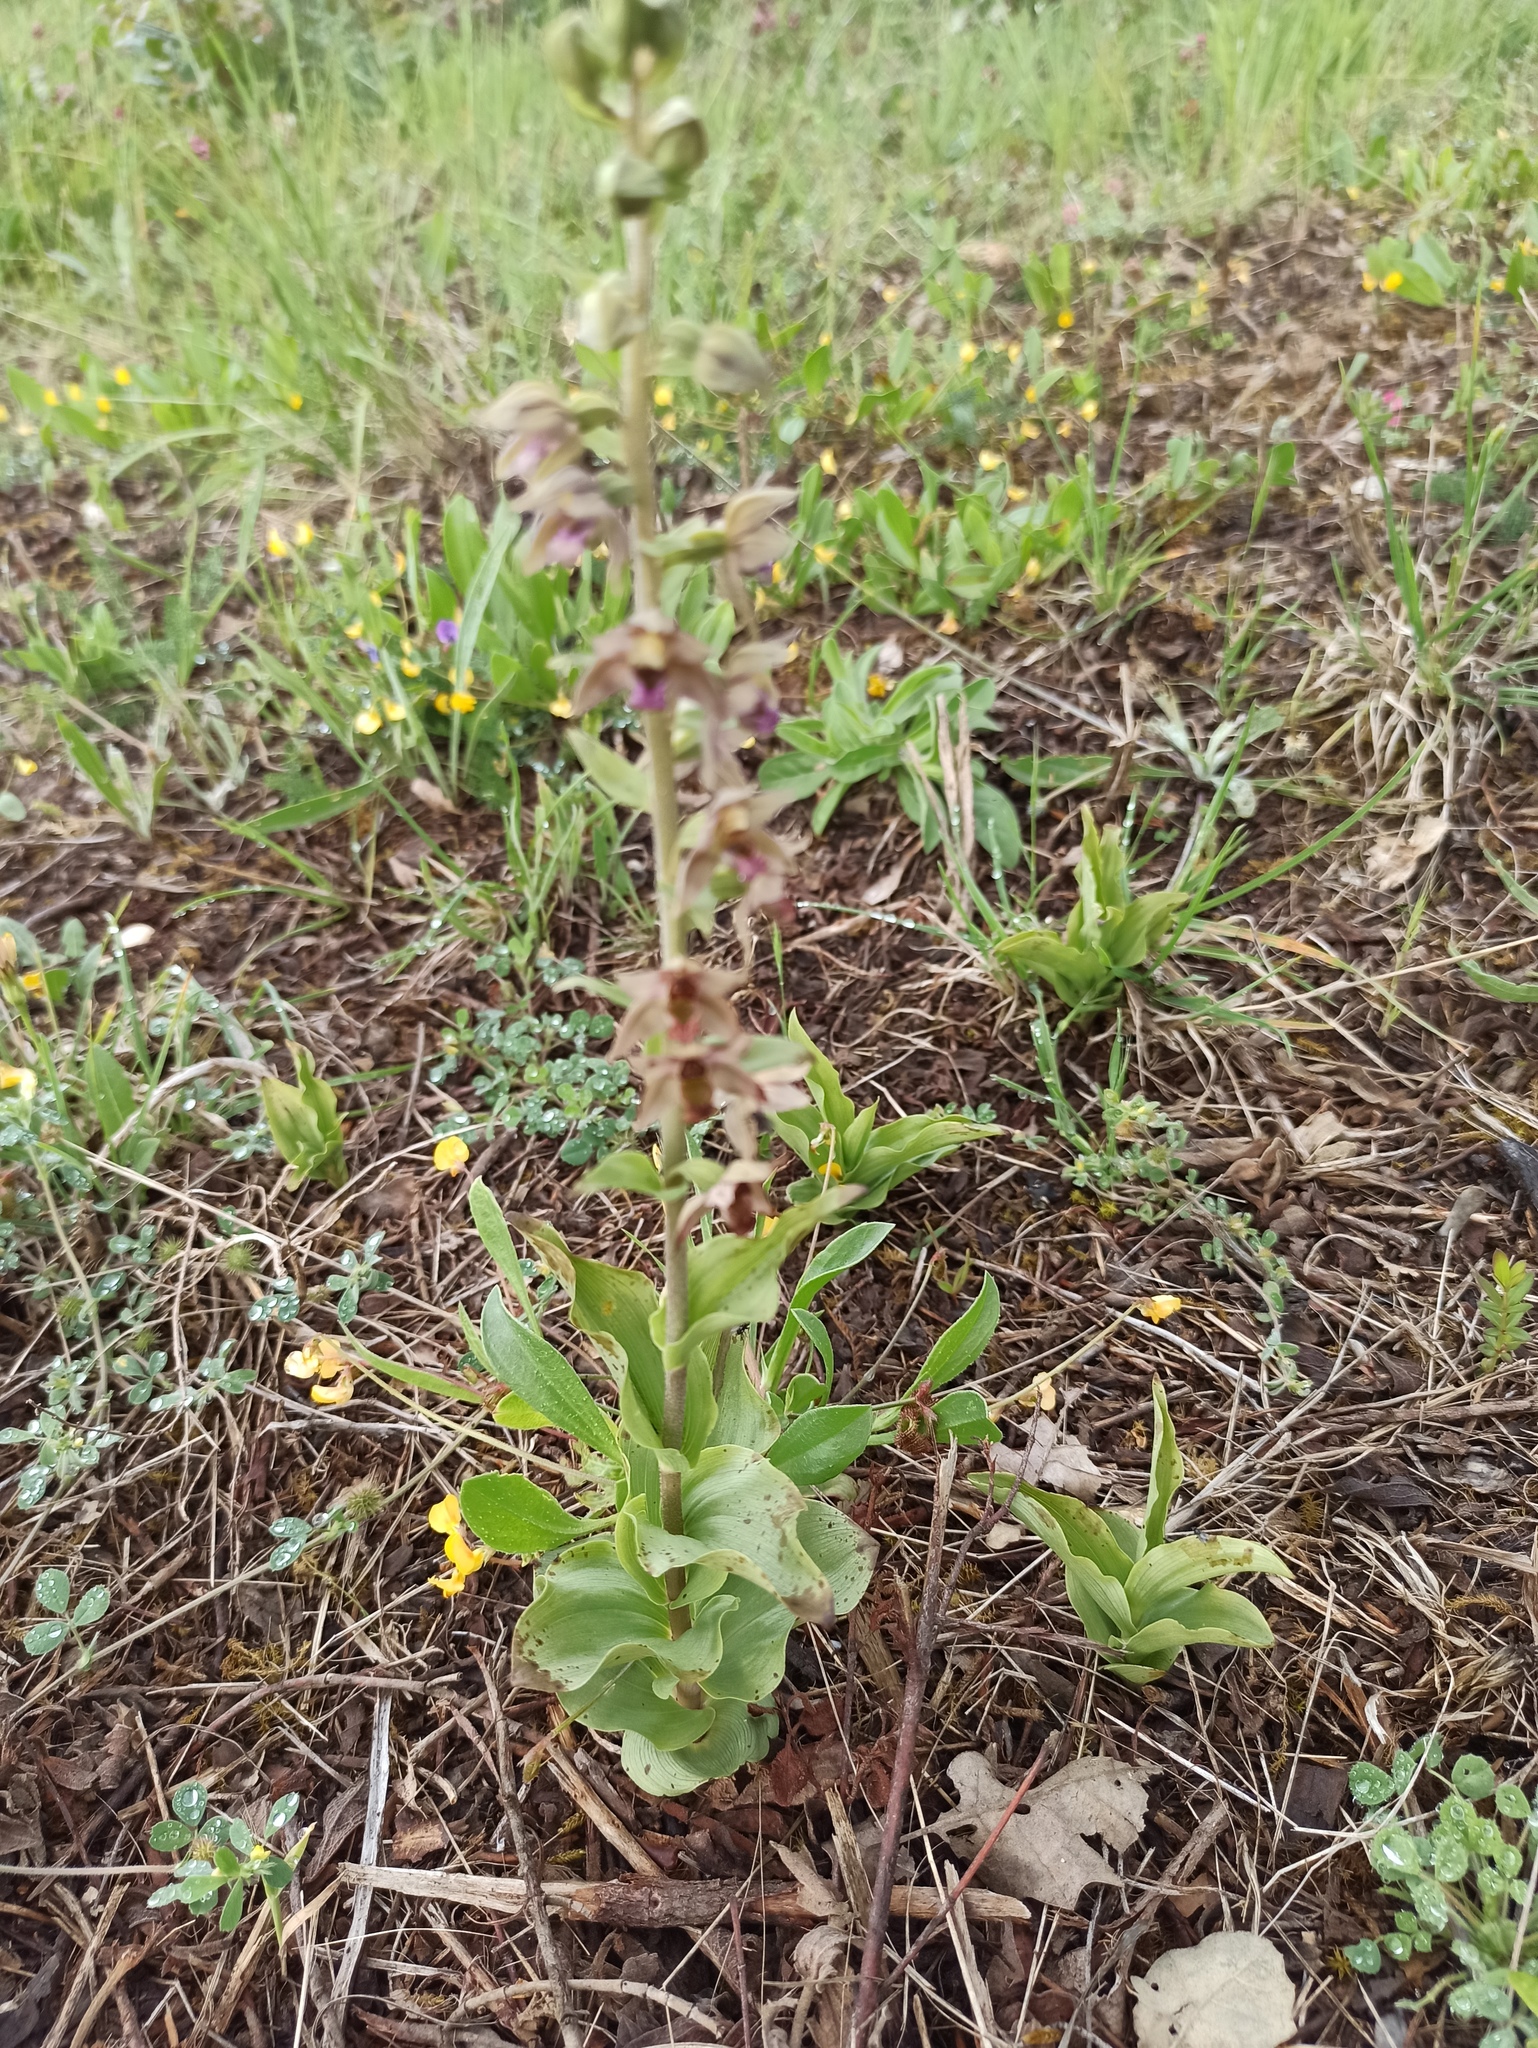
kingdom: Plantae
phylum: Tracheophyta
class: Liliopsida
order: Asparagales
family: Orchidaceae
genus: Epipactis
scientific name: Epipactis helleborine
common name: Broad-leaved helleborine
